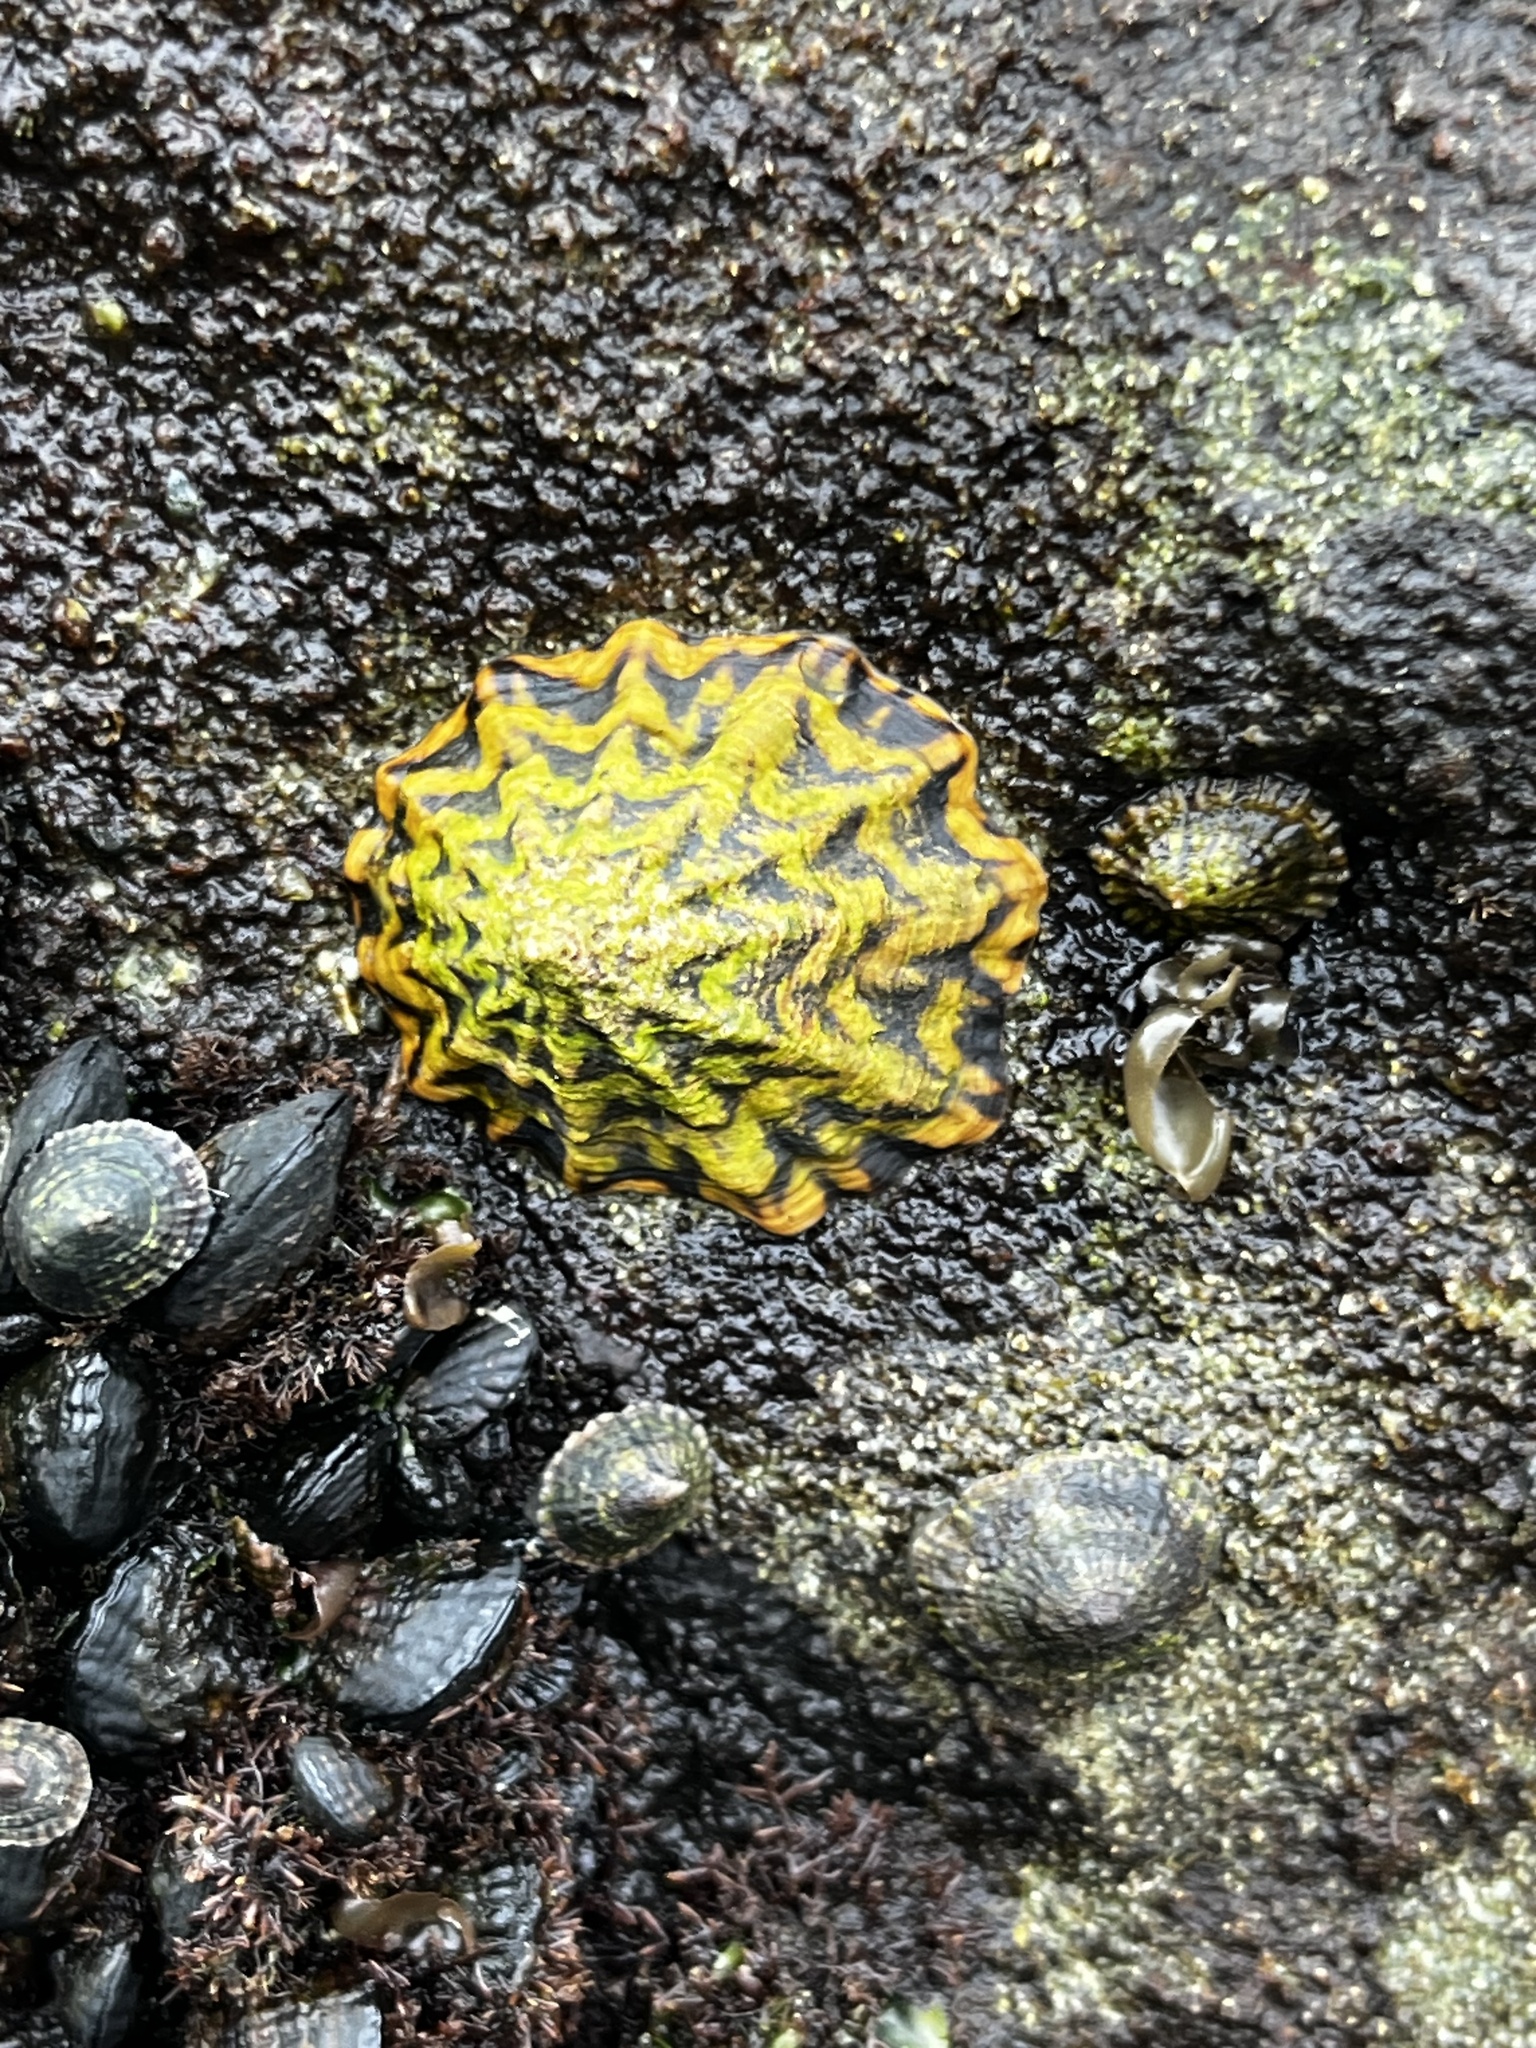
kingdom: Animalia
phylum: Mollusca
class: Gastropoda
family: Lottiidae
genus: Scurria
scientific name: Scurria zebrina
